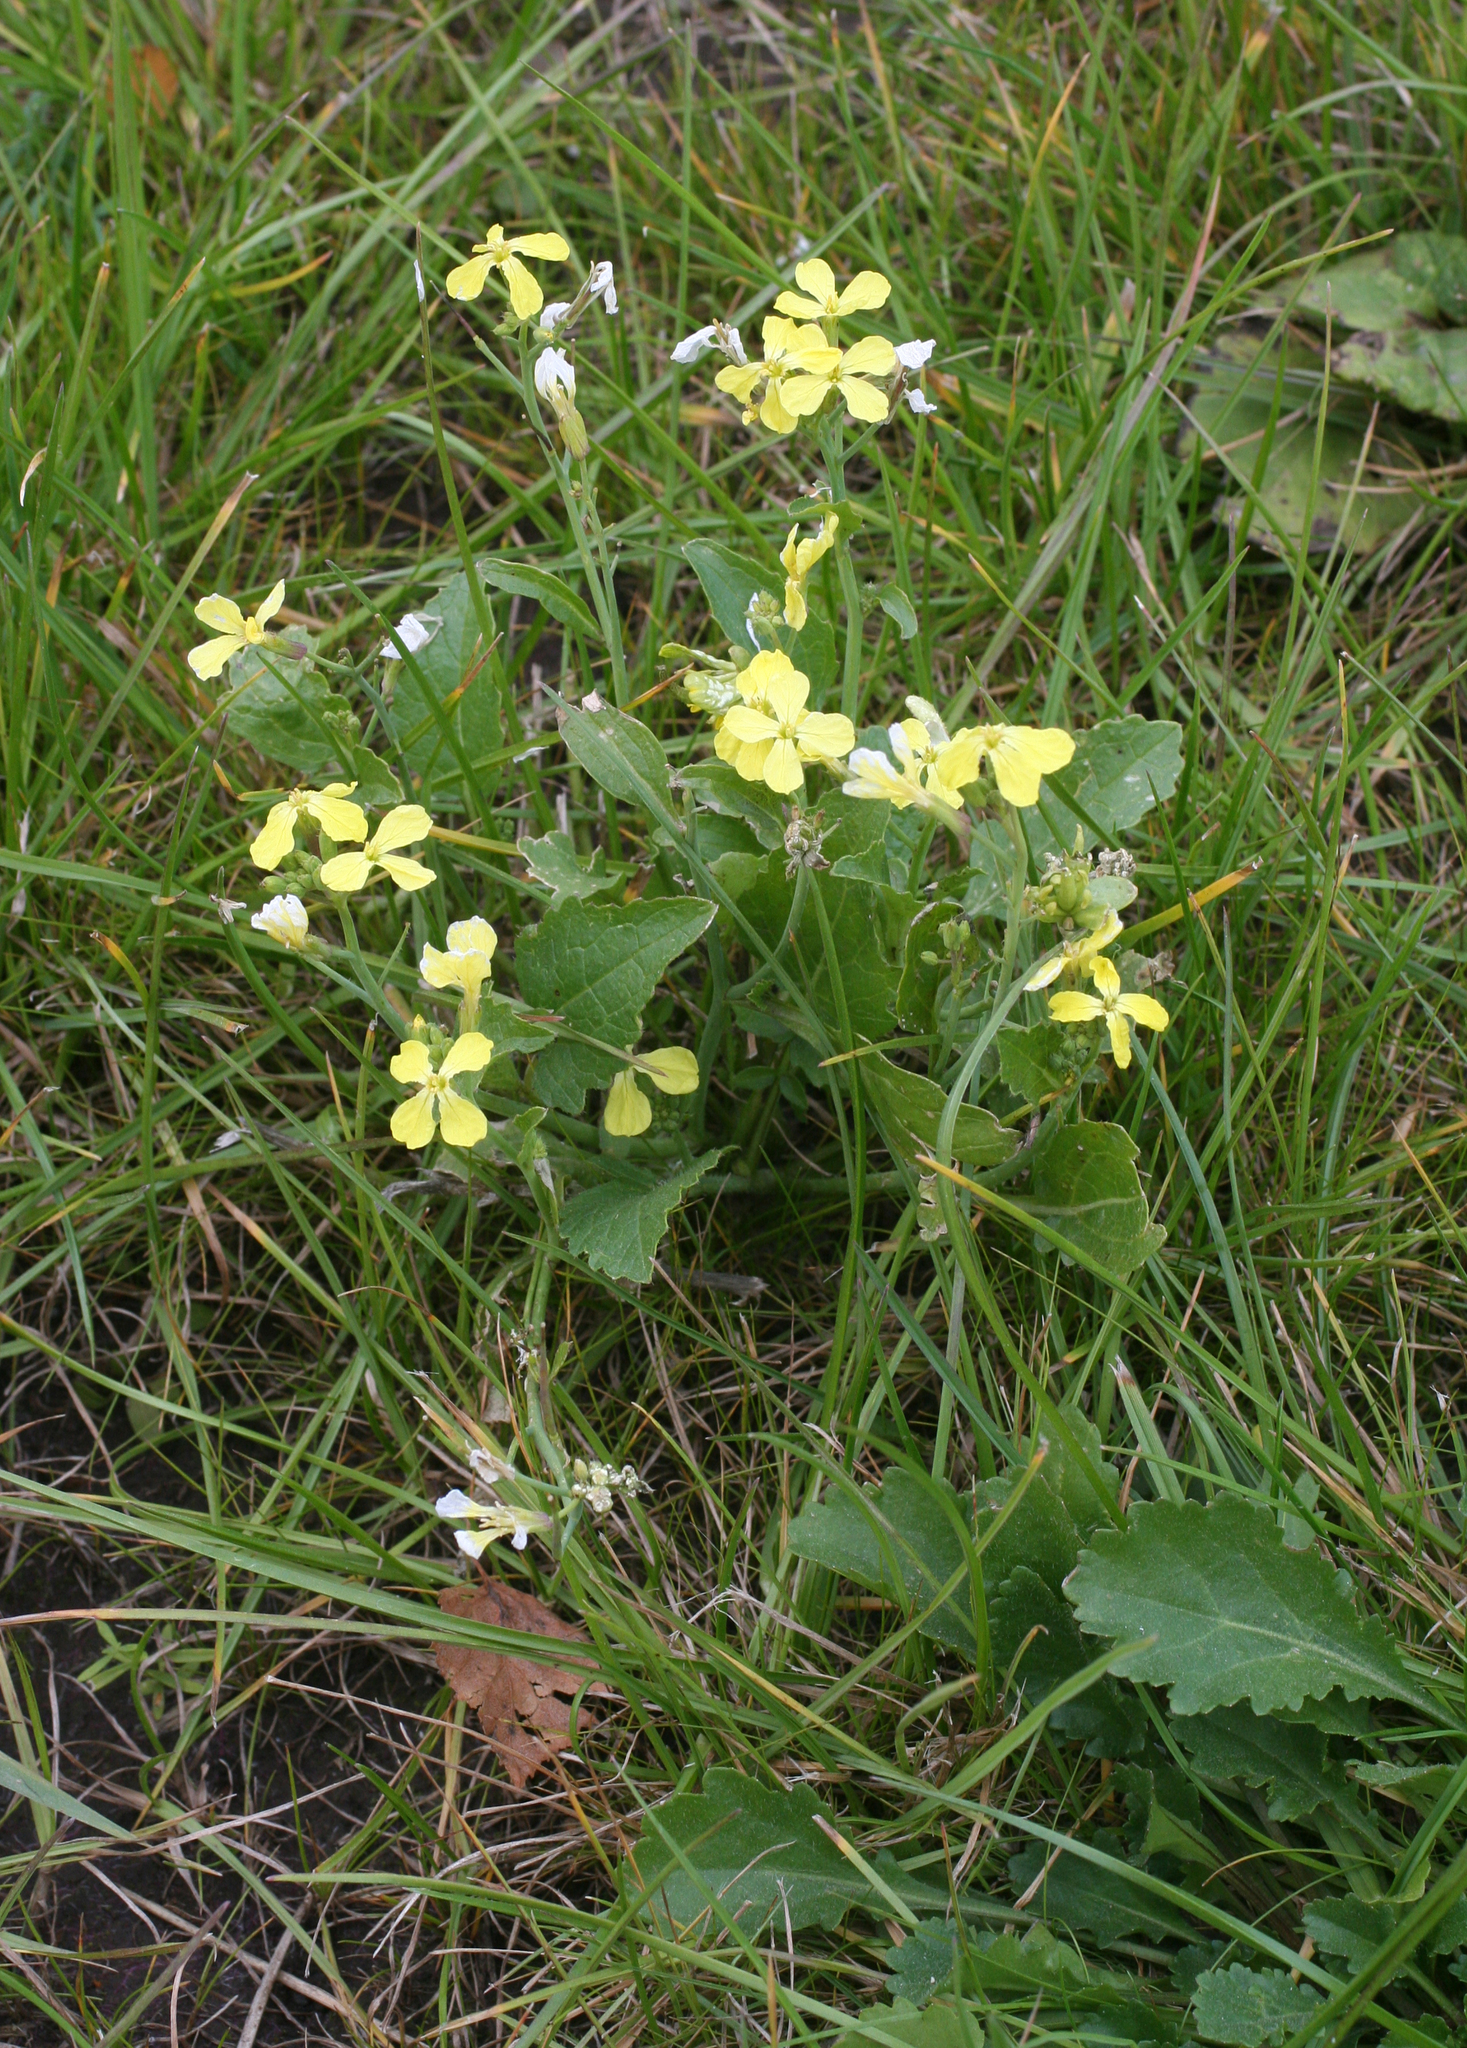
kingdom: Plantae
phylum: Tracheophyta
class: Magnoliopsida
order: Brassicales
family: Brassicaceae
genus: Raphanus
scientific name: Raphanus raphanistrum
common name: Wild radish
